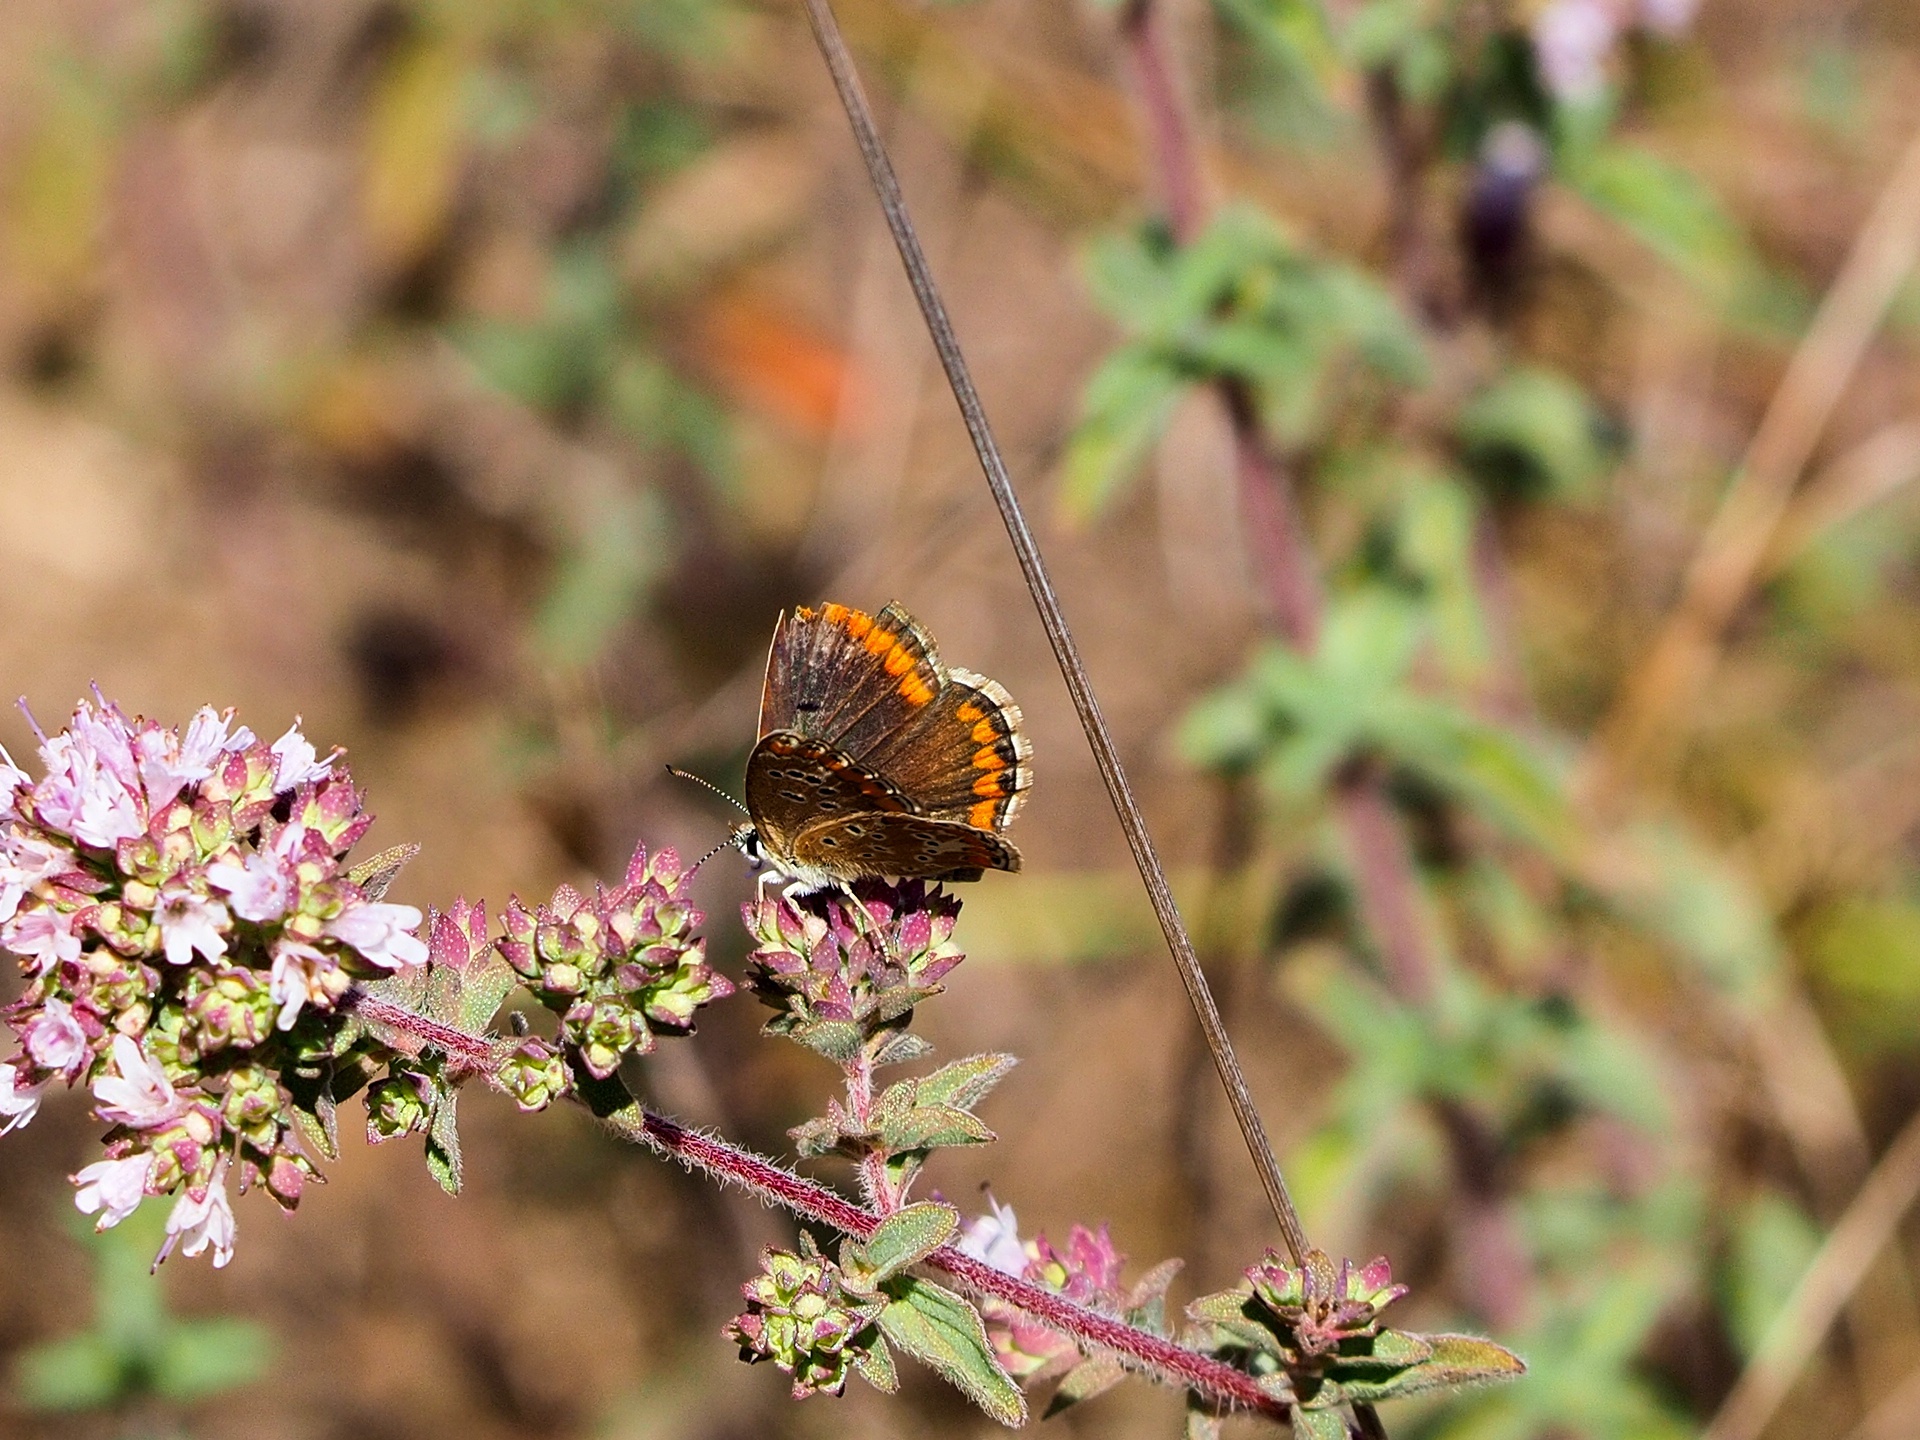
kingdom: Animalia
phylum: Arthropoda
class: Insecta
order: Lepidoptera
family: Lycaenidae
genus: Aricia
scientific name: Aricia agestis
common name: Brown argus
